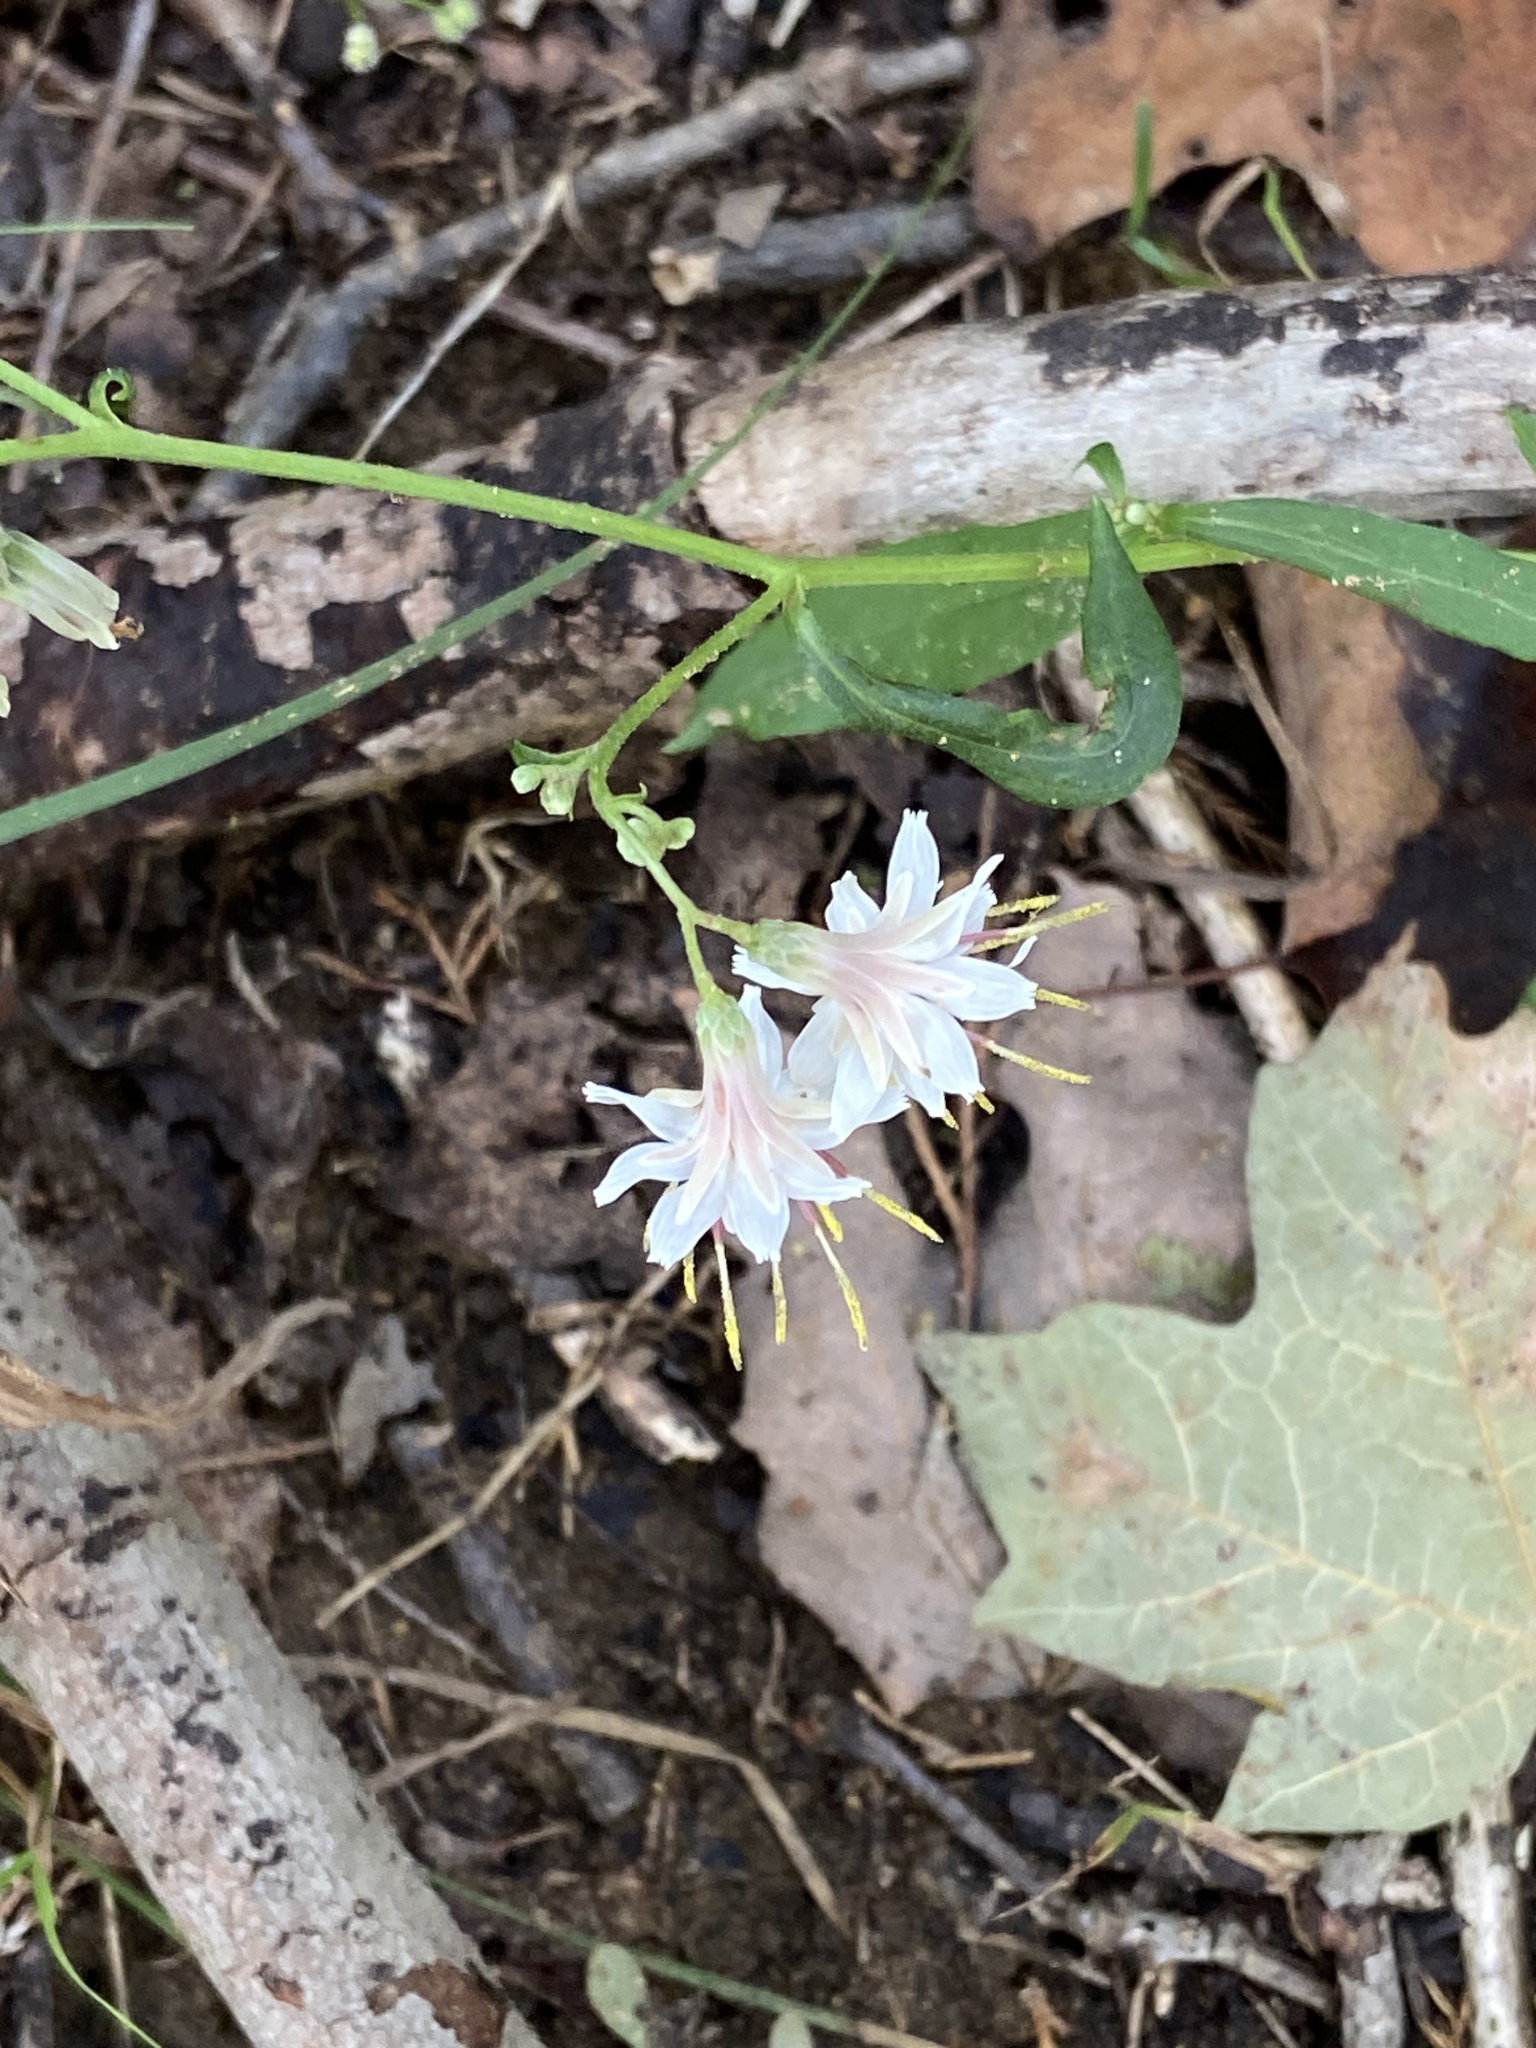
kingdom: Plantae
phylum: Tracheophyta
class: Magnoliopsida
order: Asterales
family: Asteraceae
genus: Nabalus
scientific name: Nabalus albus
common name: White rattlesnakeroot
